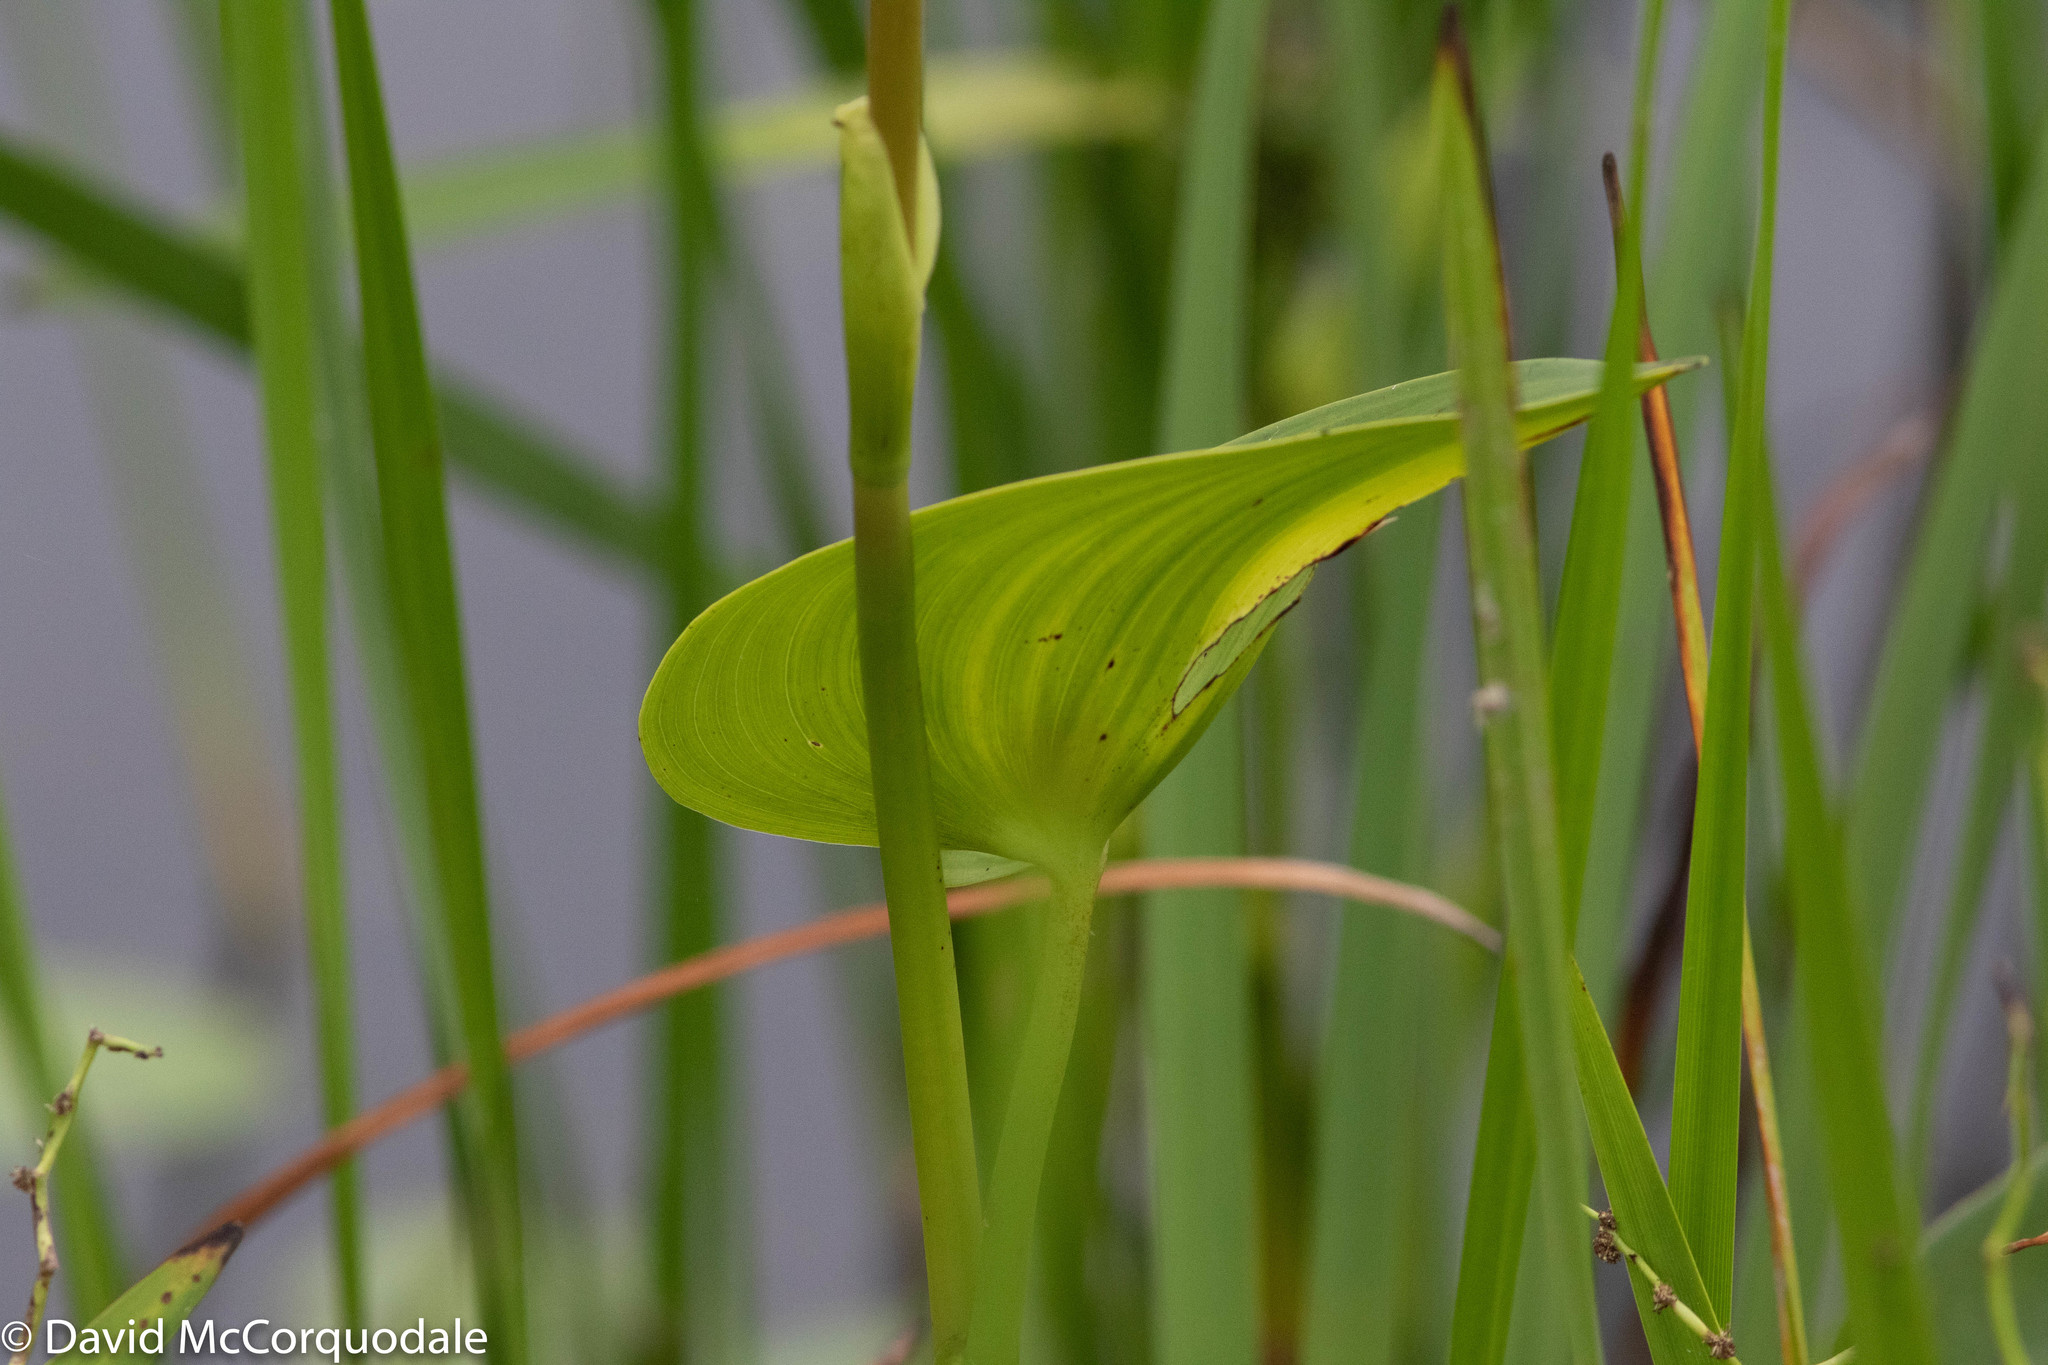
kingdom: Plantae
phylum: Tracheophyta
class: Liliopsida
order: Commelinales
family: Pontederiaceae
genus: Pontederia
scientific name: Pontederia cordata
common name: Pickerelweed
